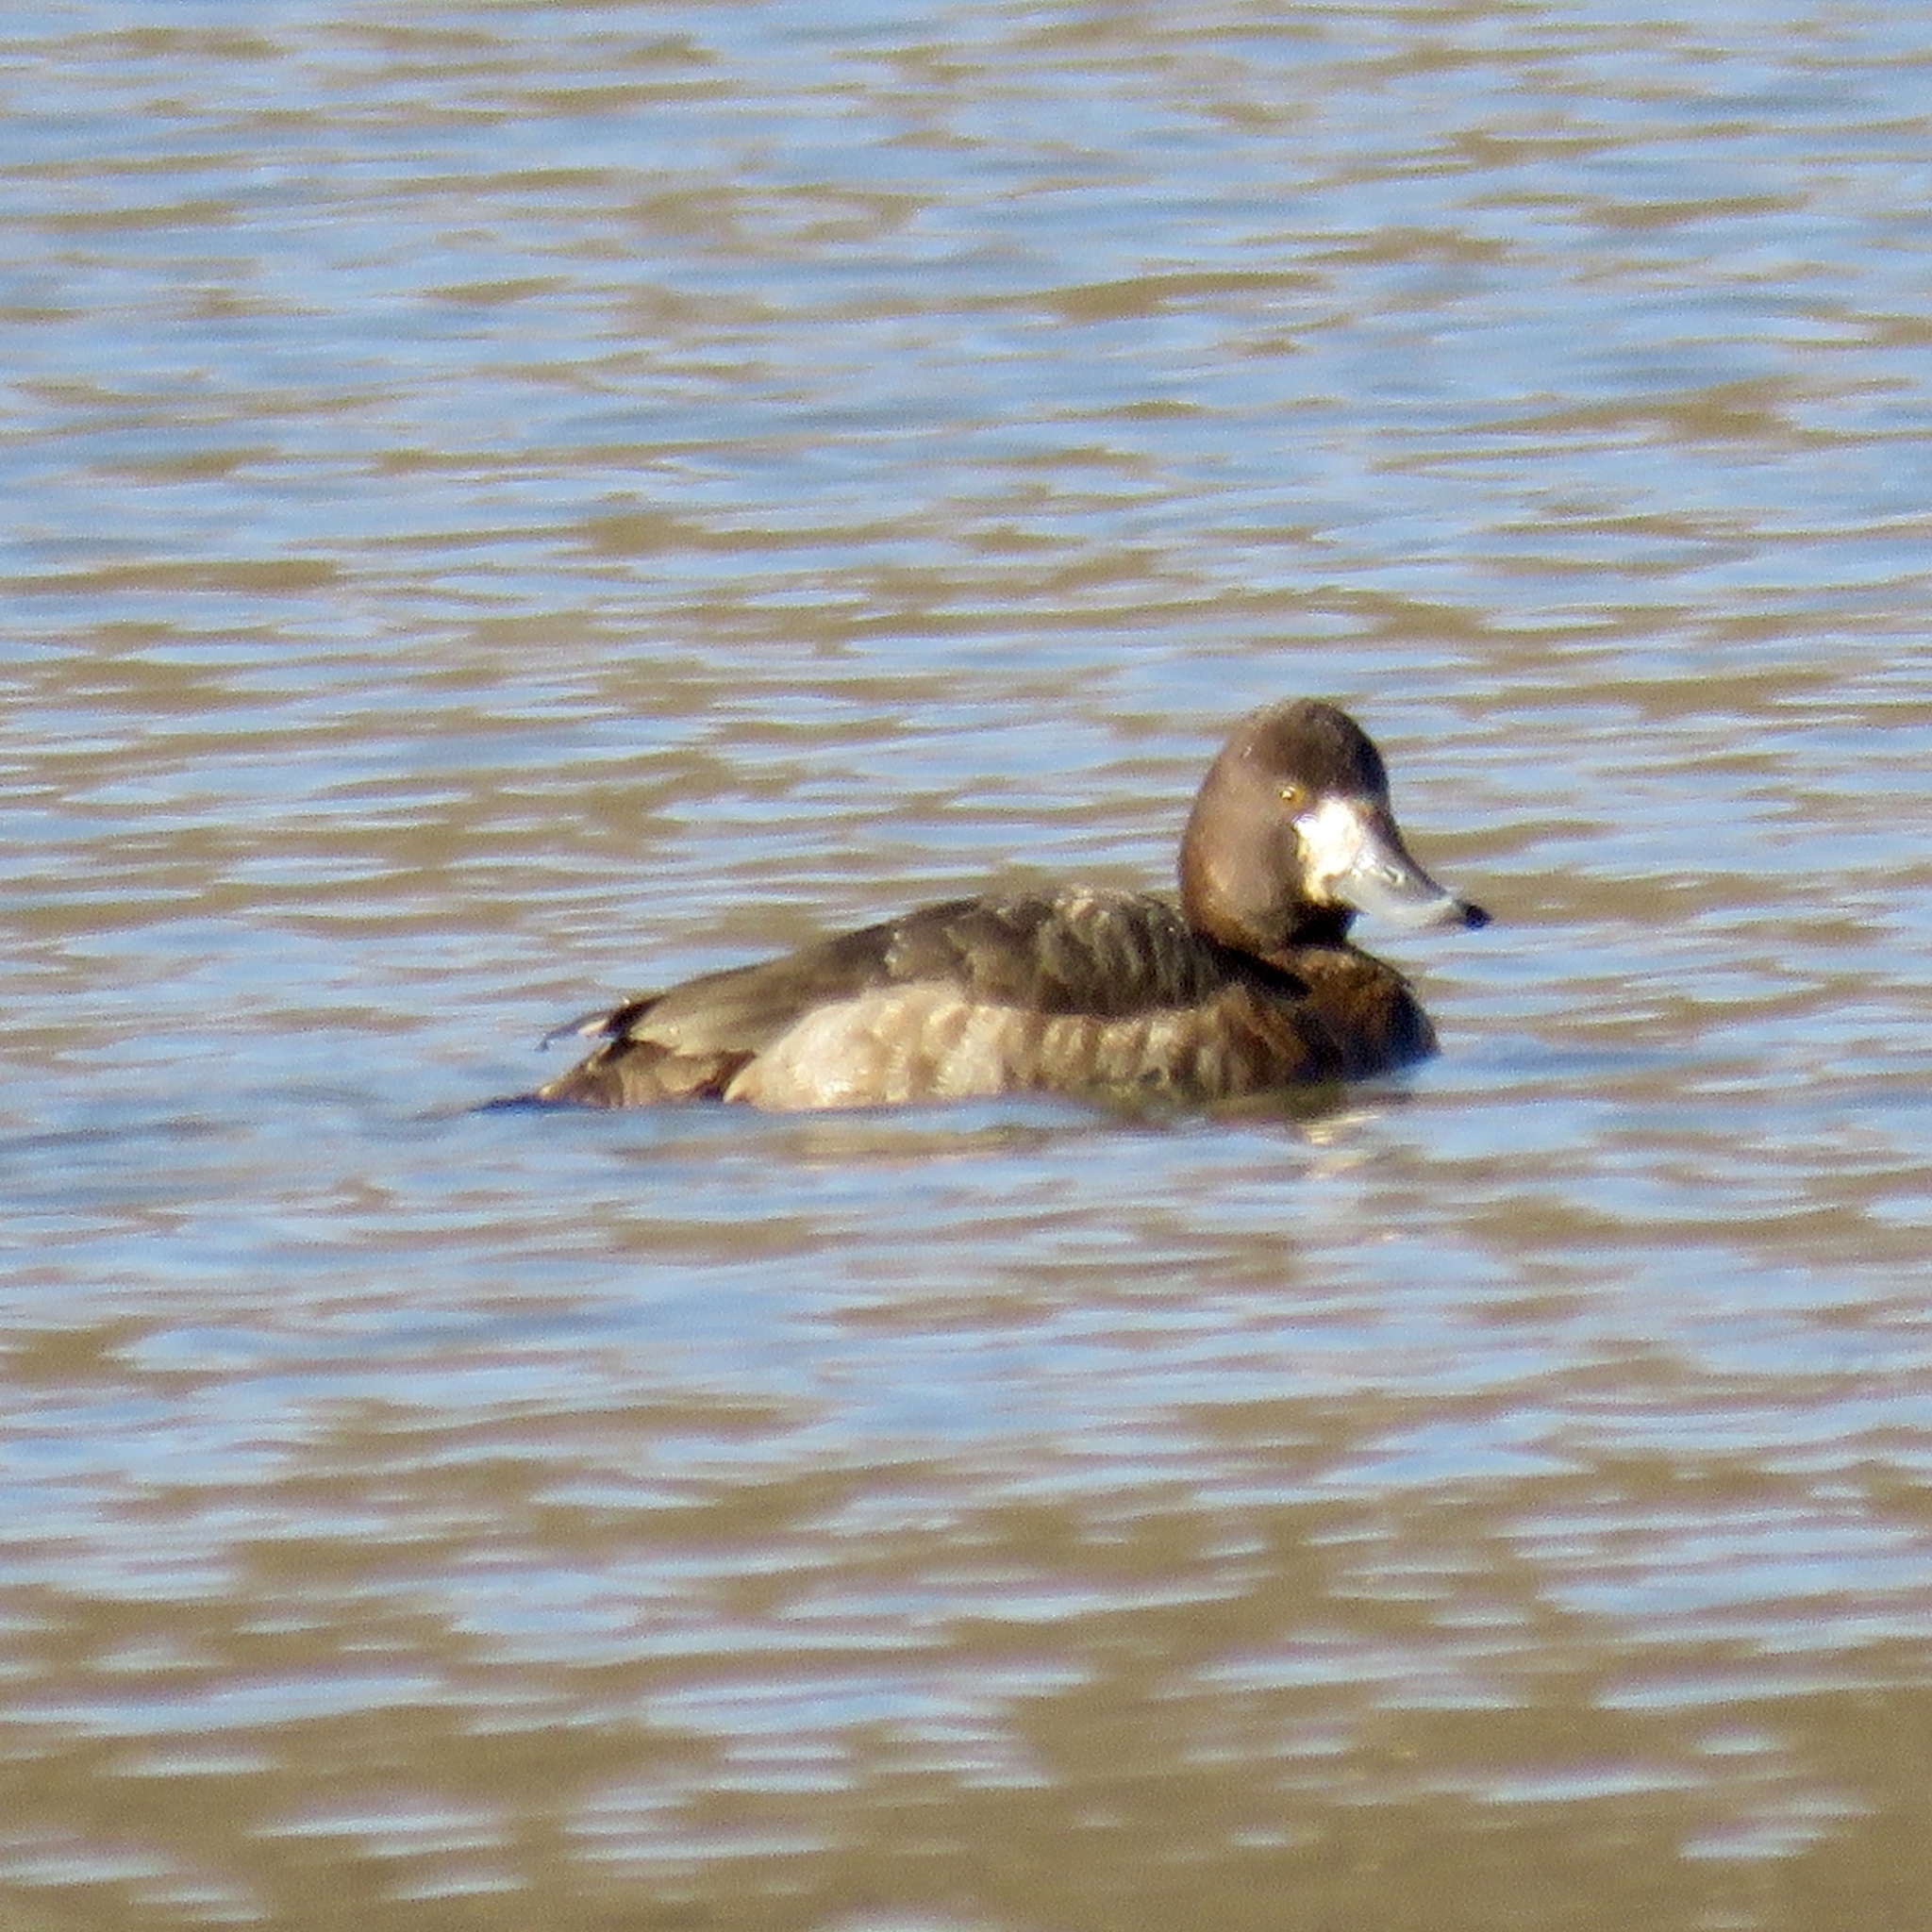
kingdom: Animalia
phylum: Chordata
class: Aves
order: Anseriformes
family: Anatidae
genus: Aythya
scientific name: Aythya affinis
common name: Lesser scaup
